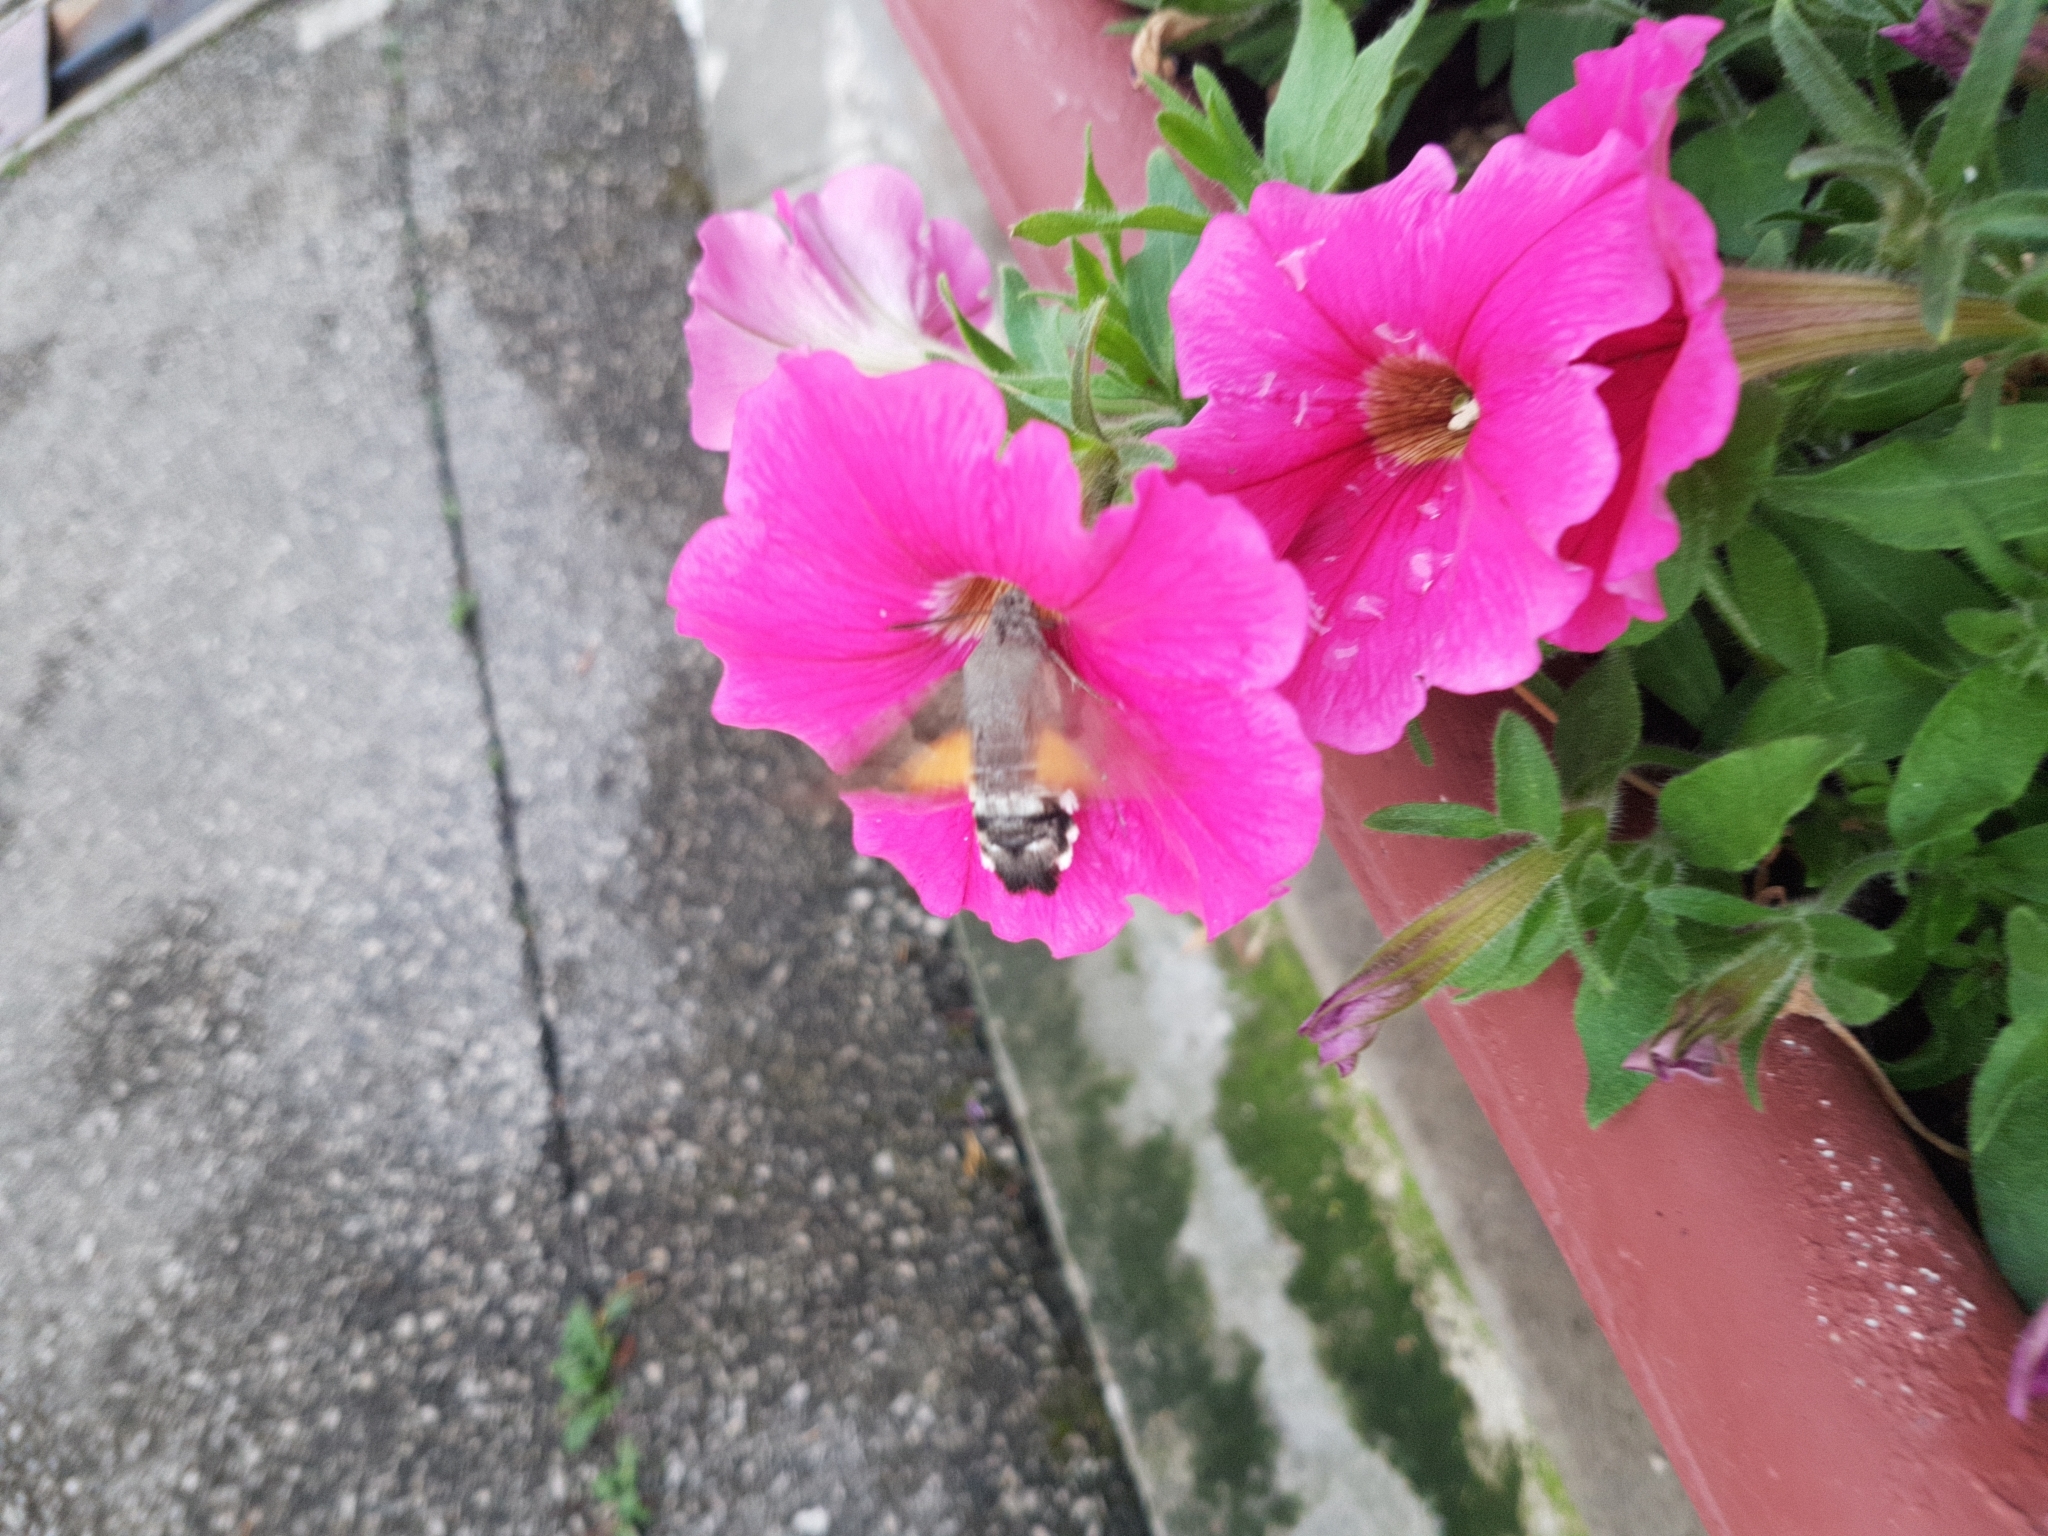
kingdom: Animalia
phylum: Arthropoda
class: Insecta
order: Lepidoptera
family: Sphingidae
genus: Macroglossum
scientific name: Macroglossum stellatarum
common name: Humming-bird hawk-moth
